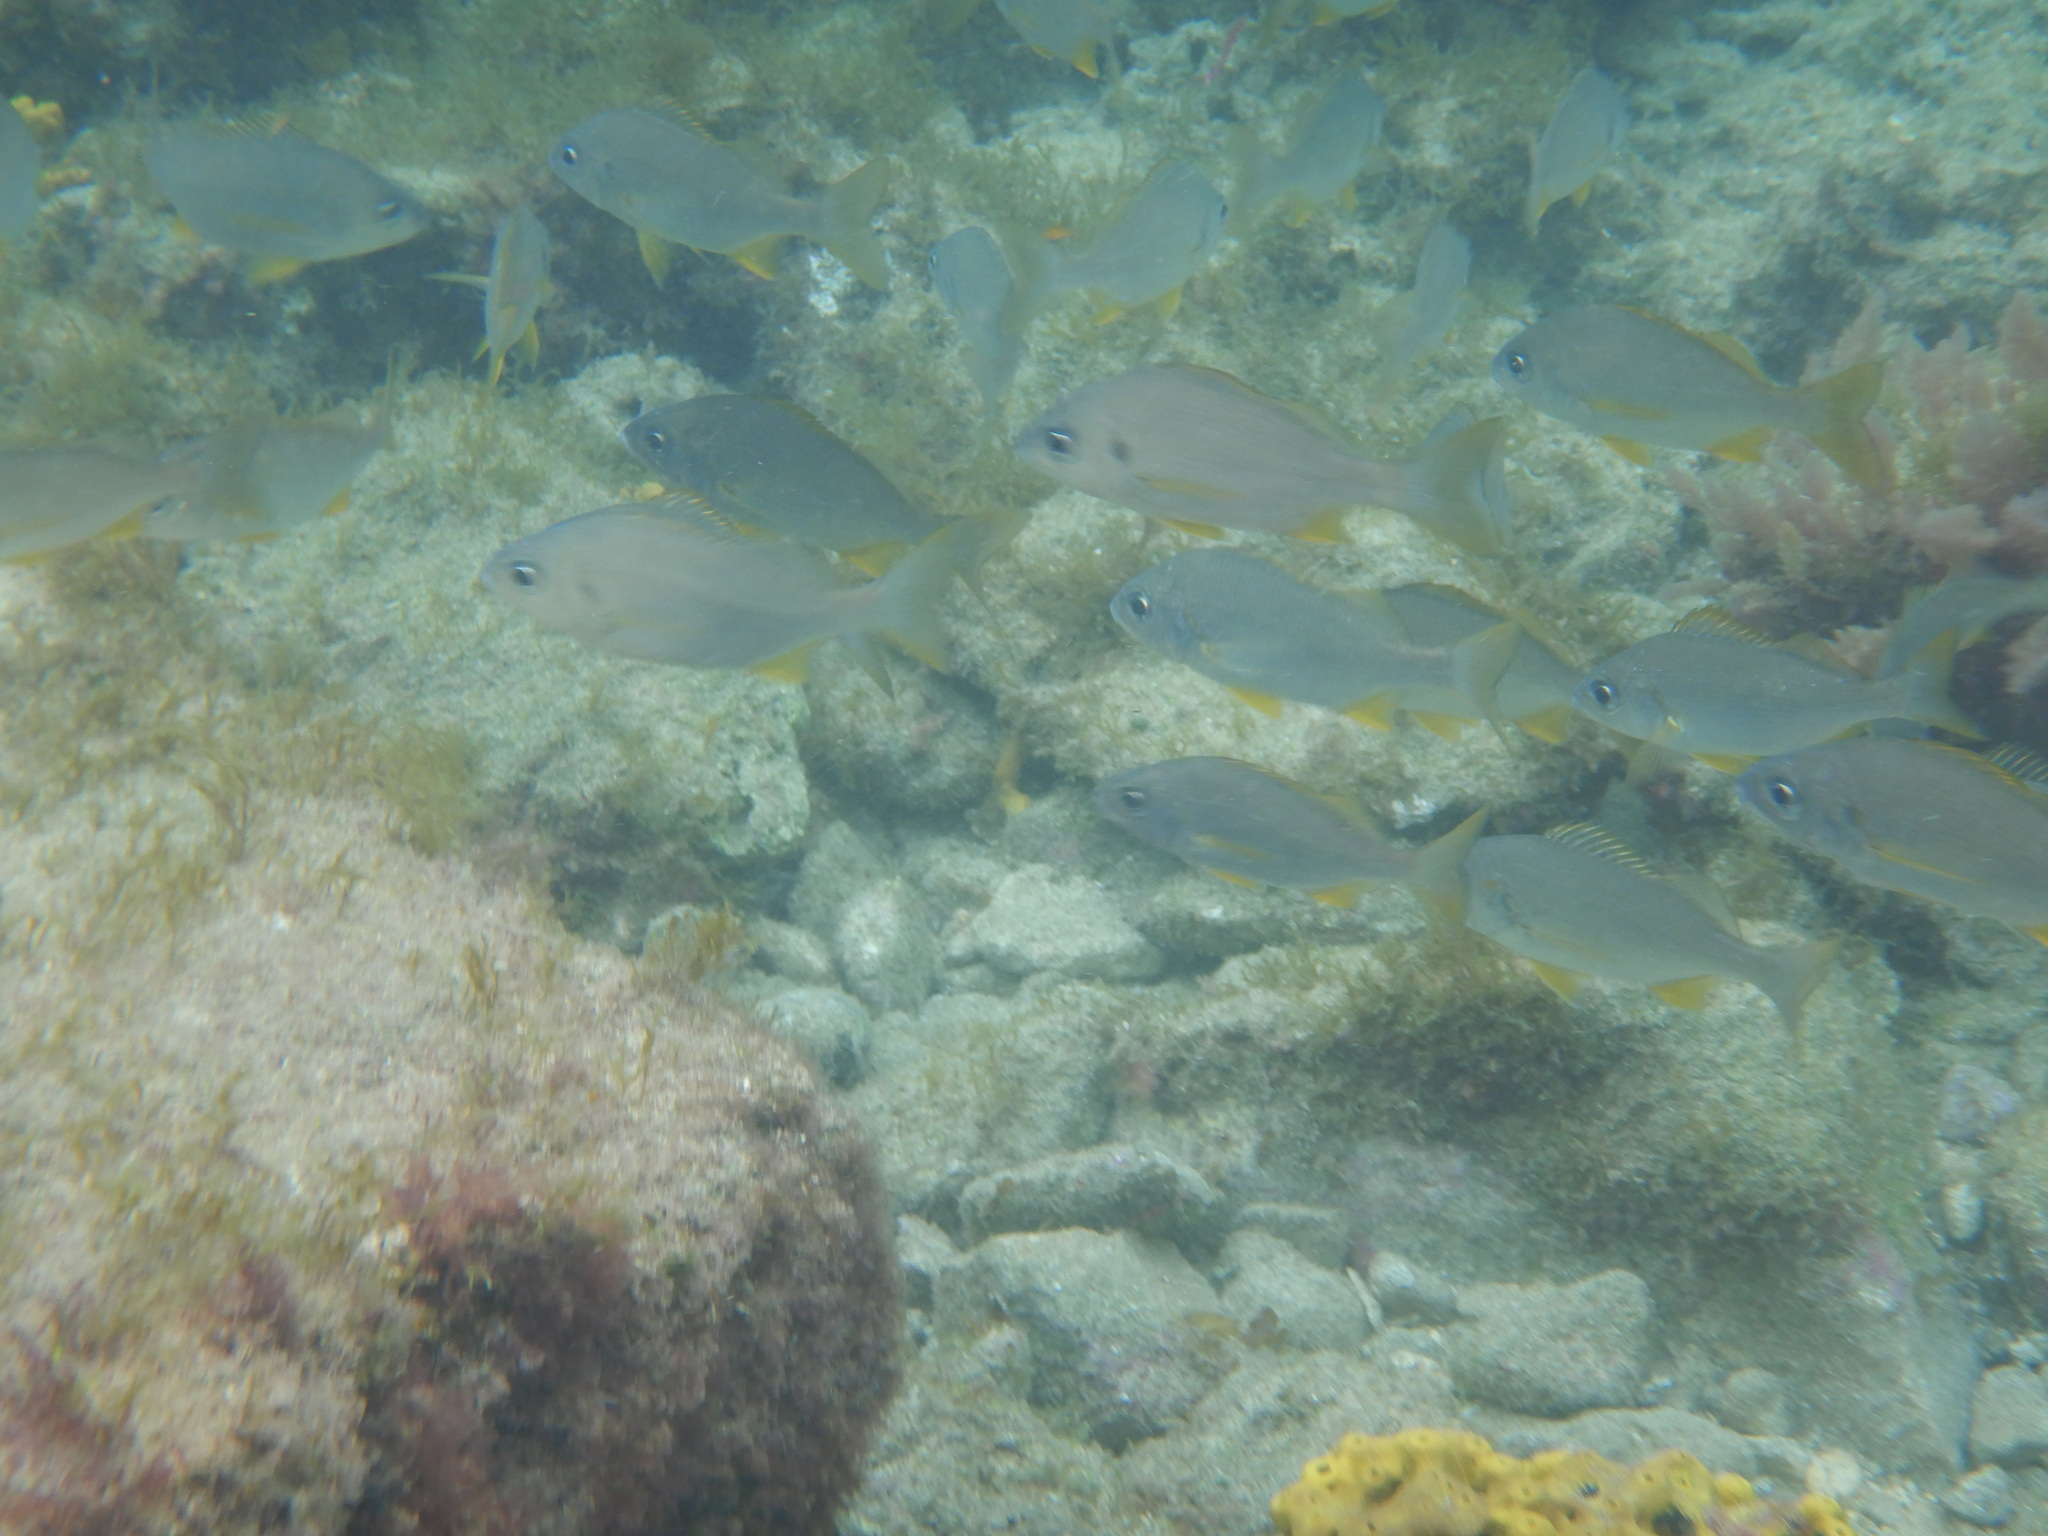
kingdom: Animalia
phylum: Chordata
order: Perciformes
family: Haemulidae
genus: Pomadasys
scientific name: Pomadasys incisus
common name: Bastard grunt
